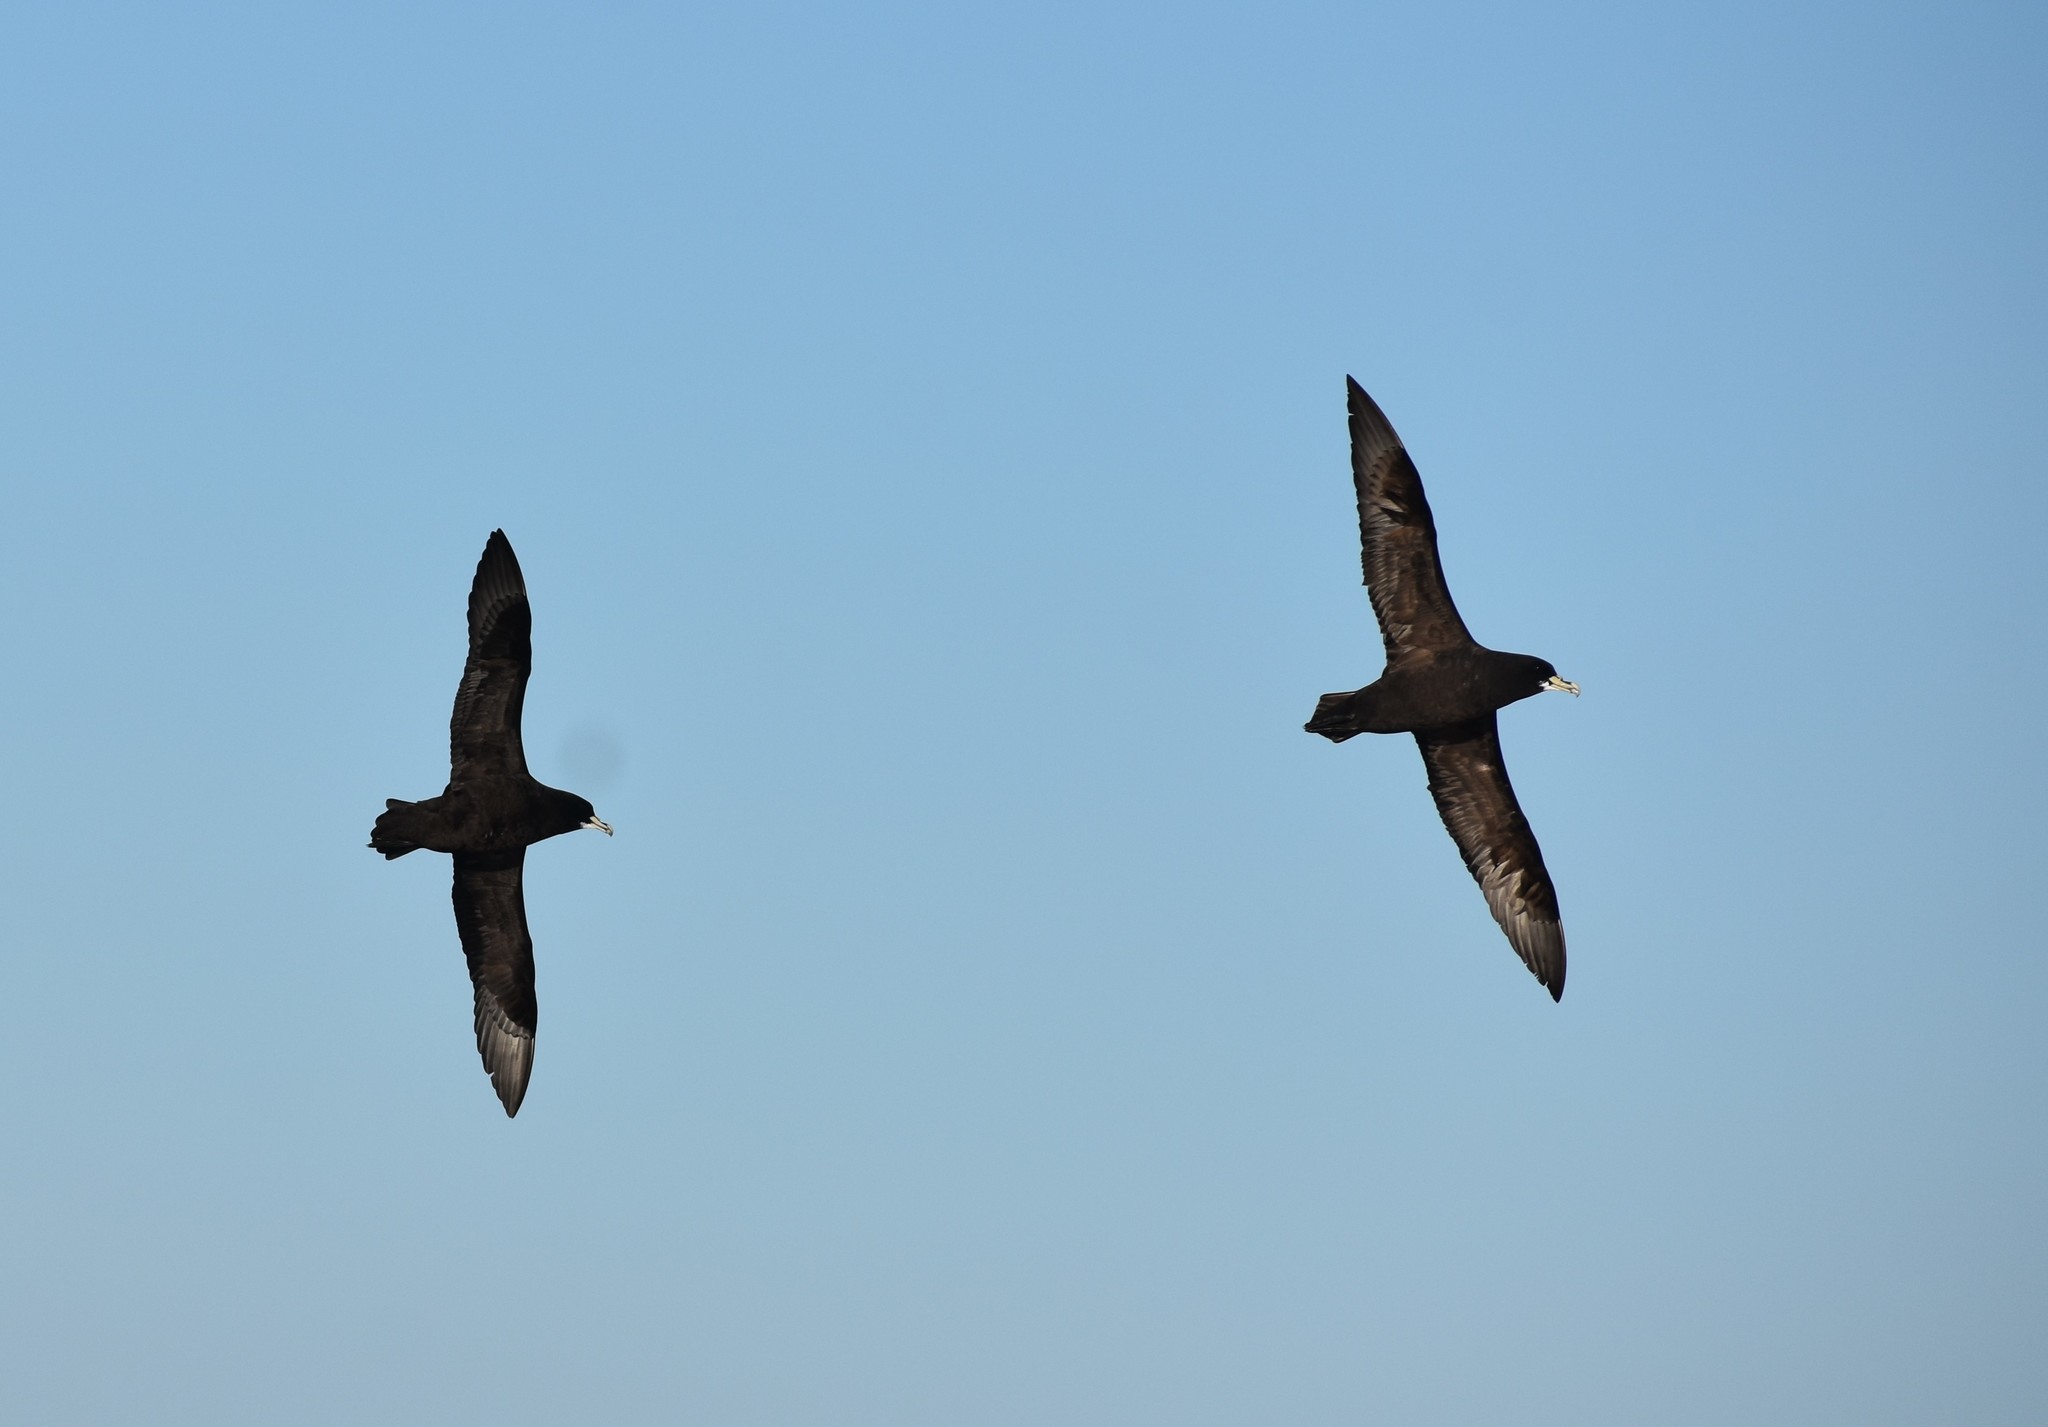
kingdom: Animalia
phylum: Chordata
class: Aves
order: Procellariiformes
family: Procellariidae
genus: Procellaria
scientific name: Procellaria aequinoctialis
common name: White-chinned petrel
